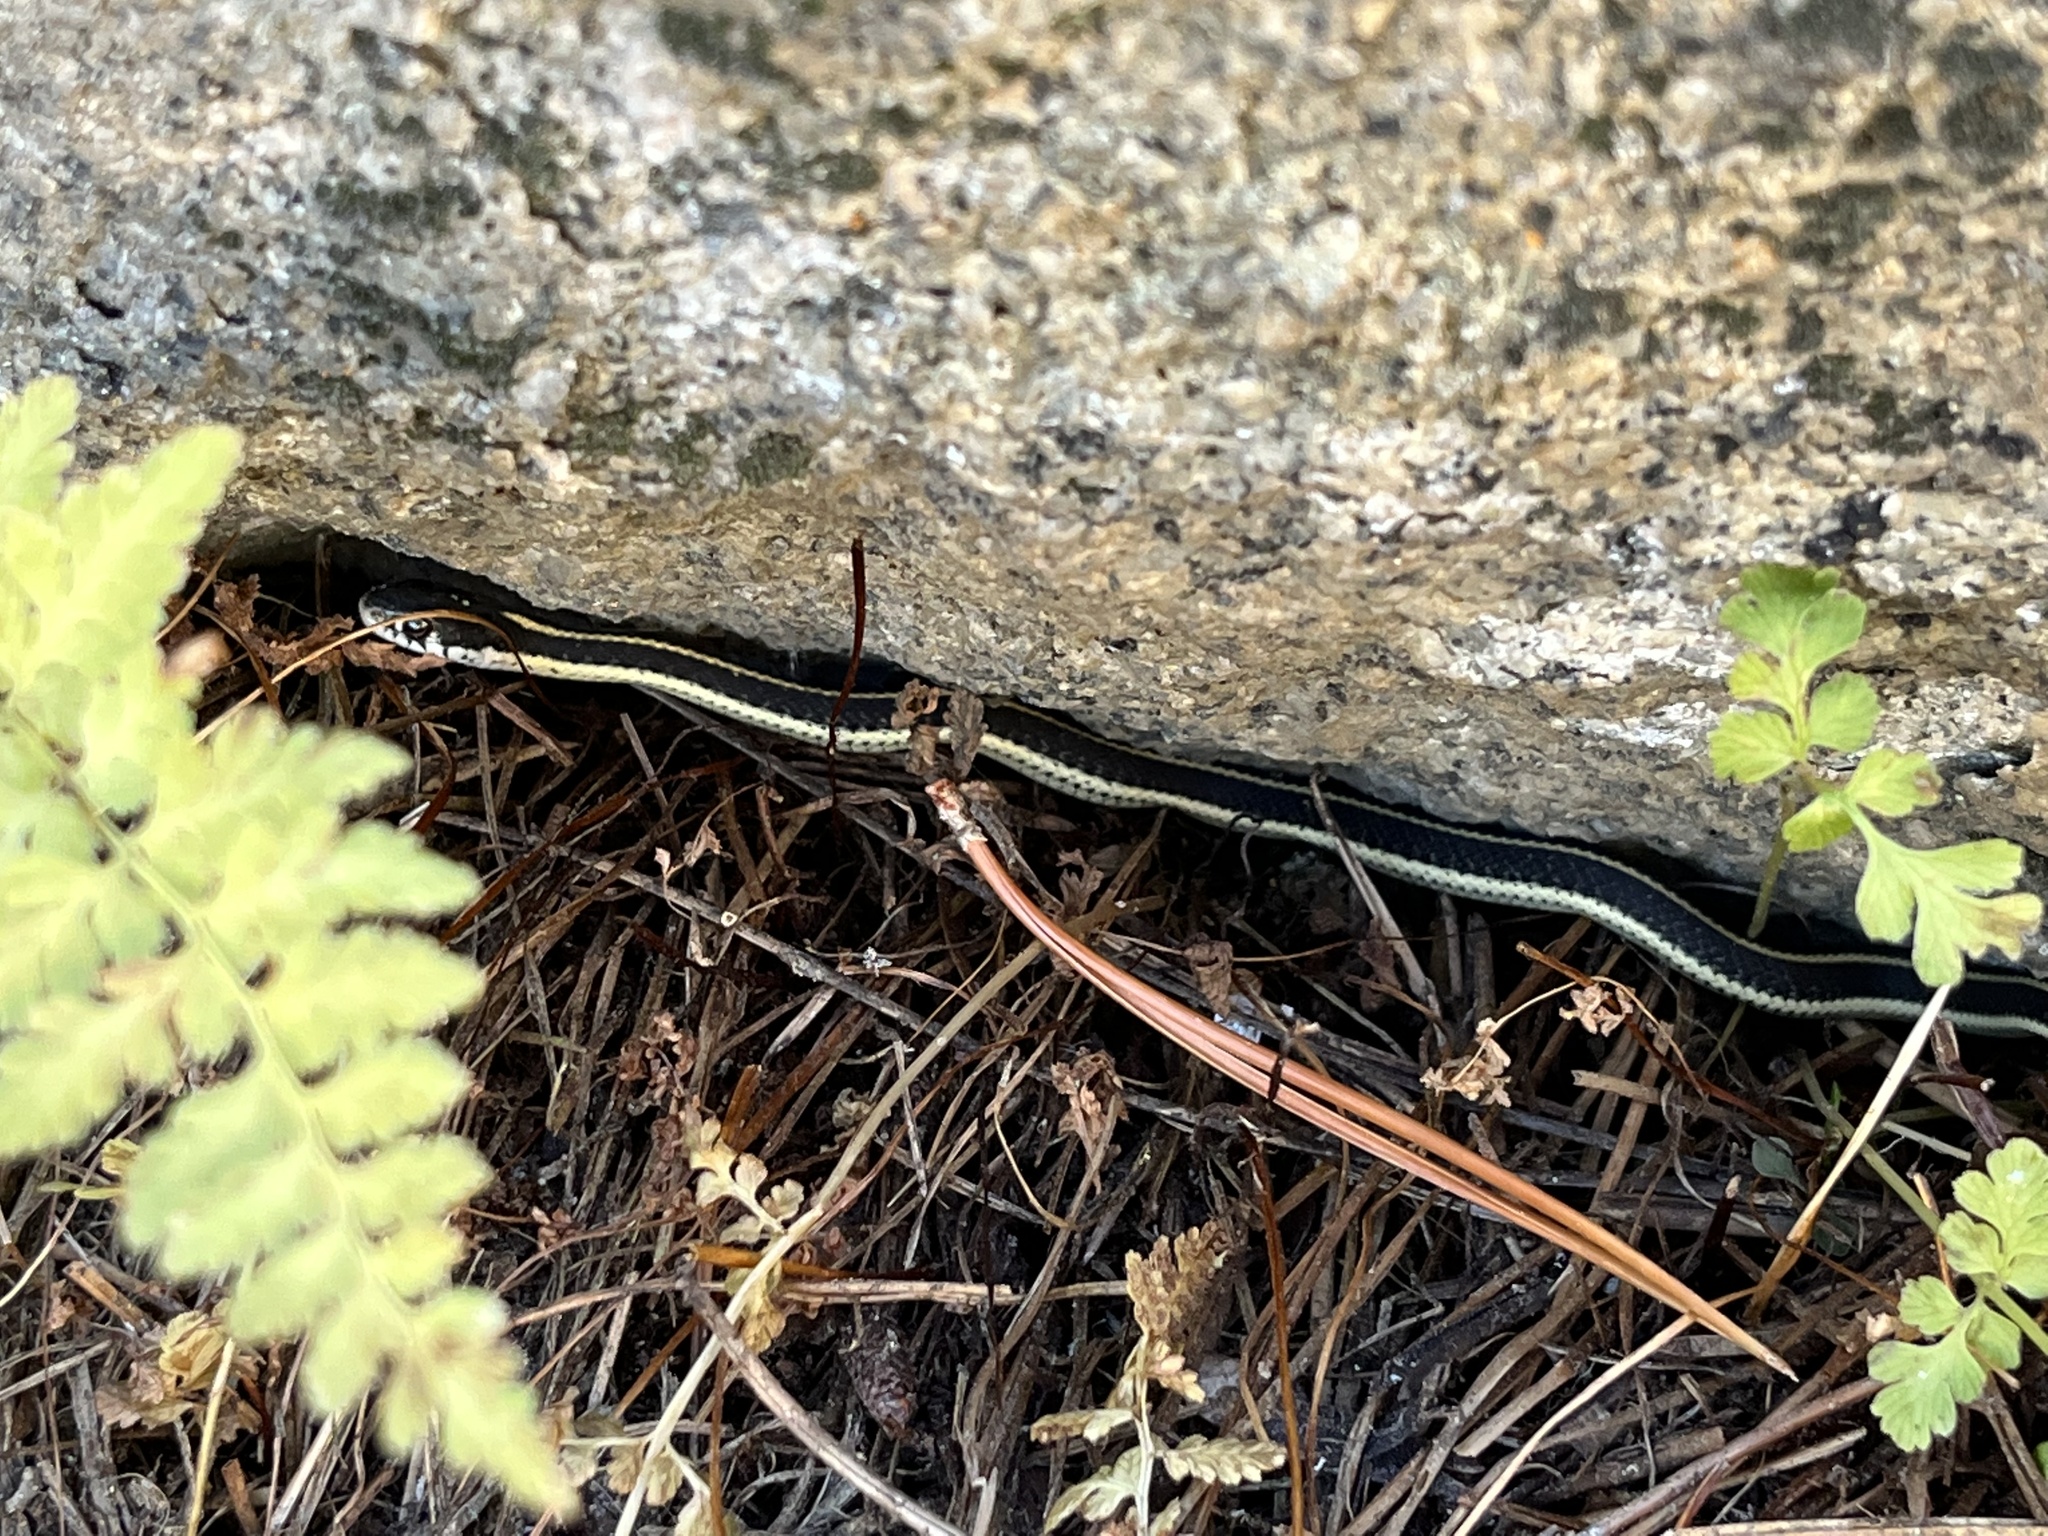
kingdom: Animalia
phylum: Chordata
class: Squamata
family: Colubridae
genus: Thamnophis
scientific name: Thamnophis elegans
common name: Western terrestrial garter snake
